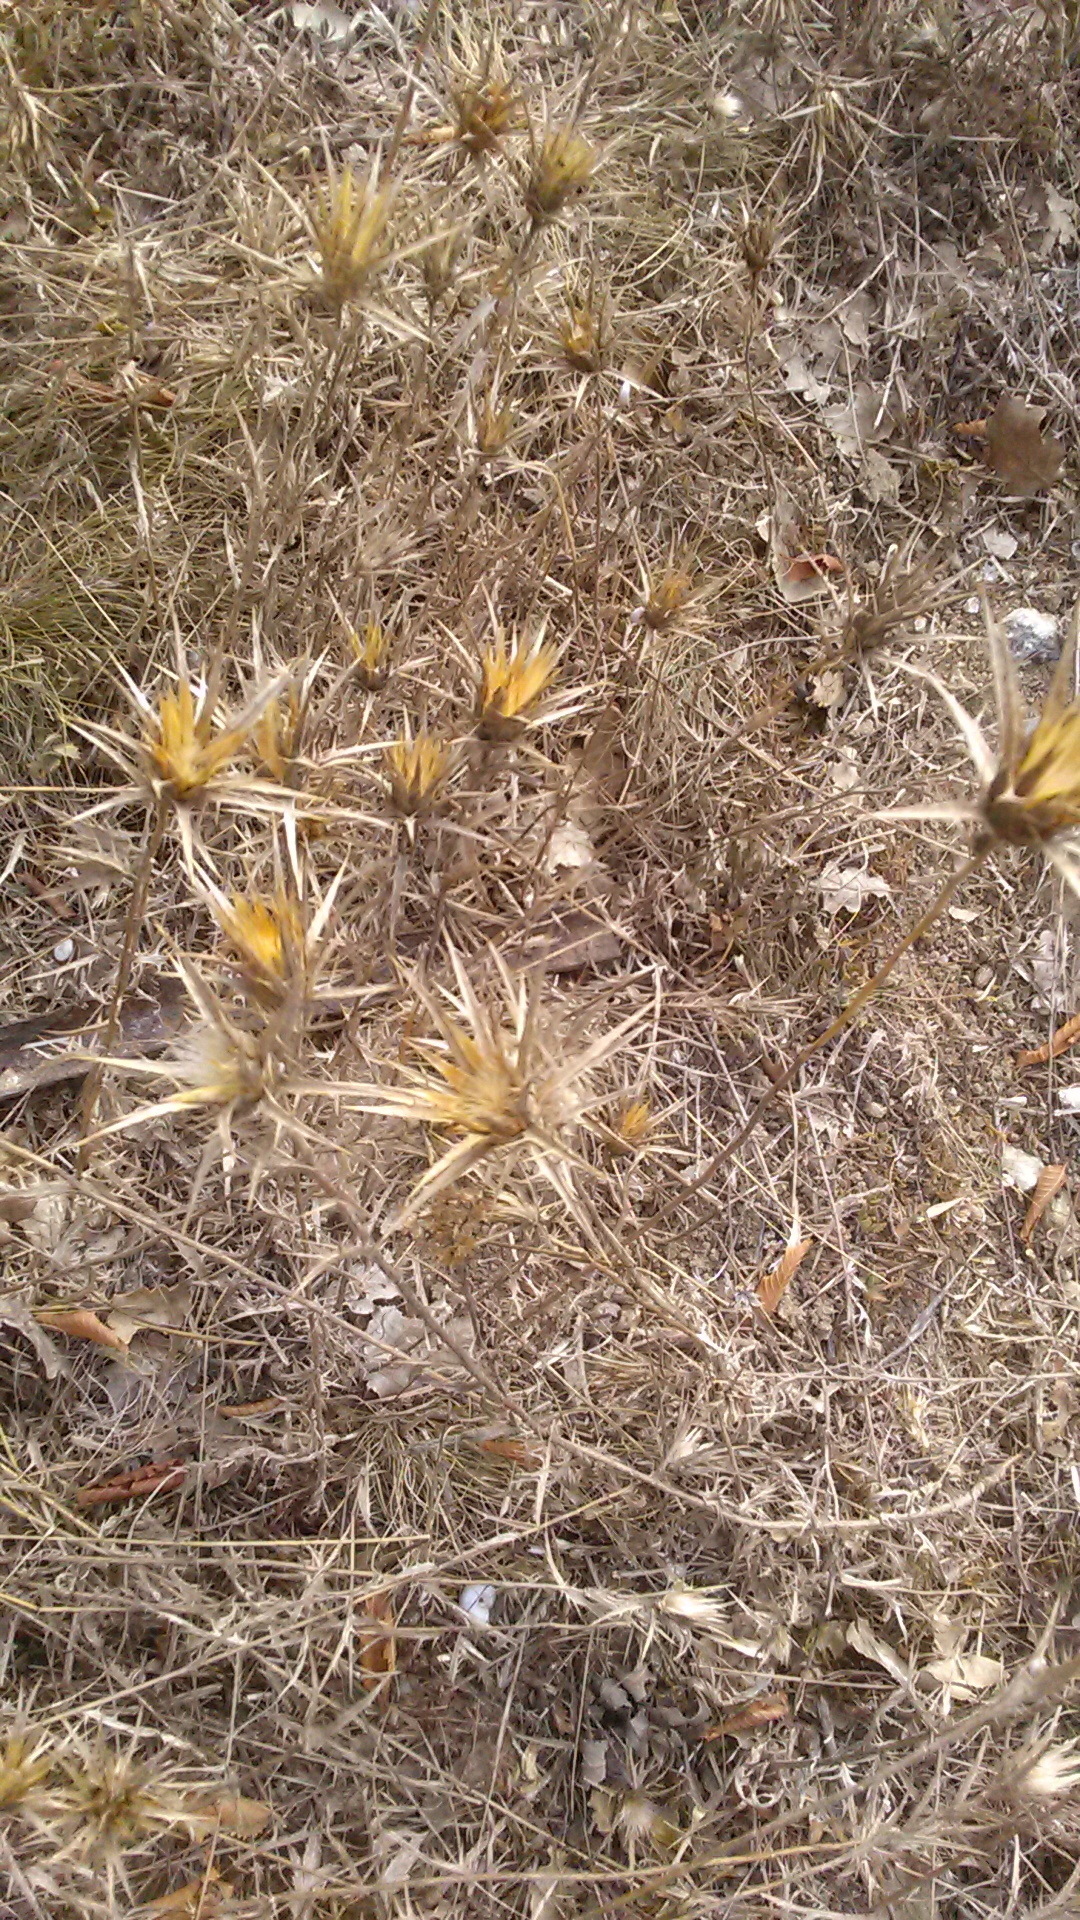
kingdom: Plantae
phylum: Tracheophyta
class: Magnoliopsida
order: Asterales
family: Asteraceae
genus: Carthamus
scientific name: Carthamus lanatus
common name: Downy safflower
